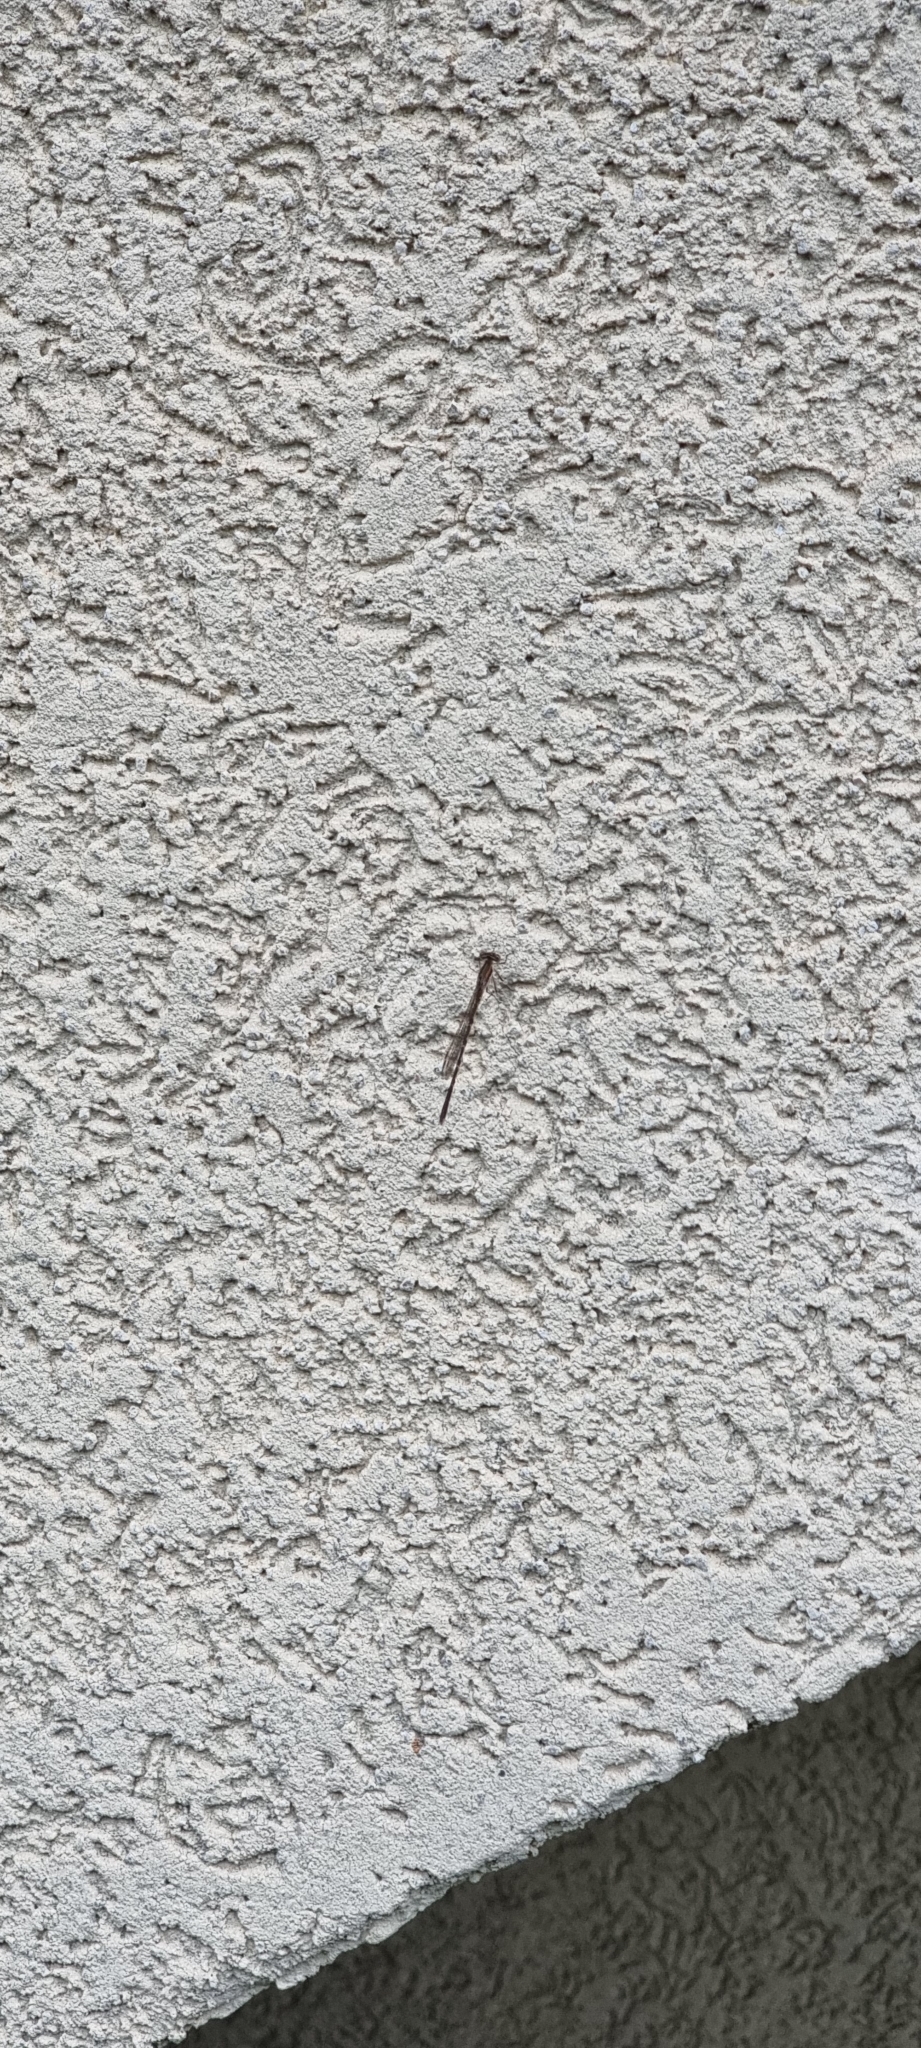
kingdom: Animalia
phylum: Arthropoda
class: Insecta
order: Odonata
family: Lestidae
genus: Sympecma
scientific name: Sympecma fusca
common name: Common winter damsel
